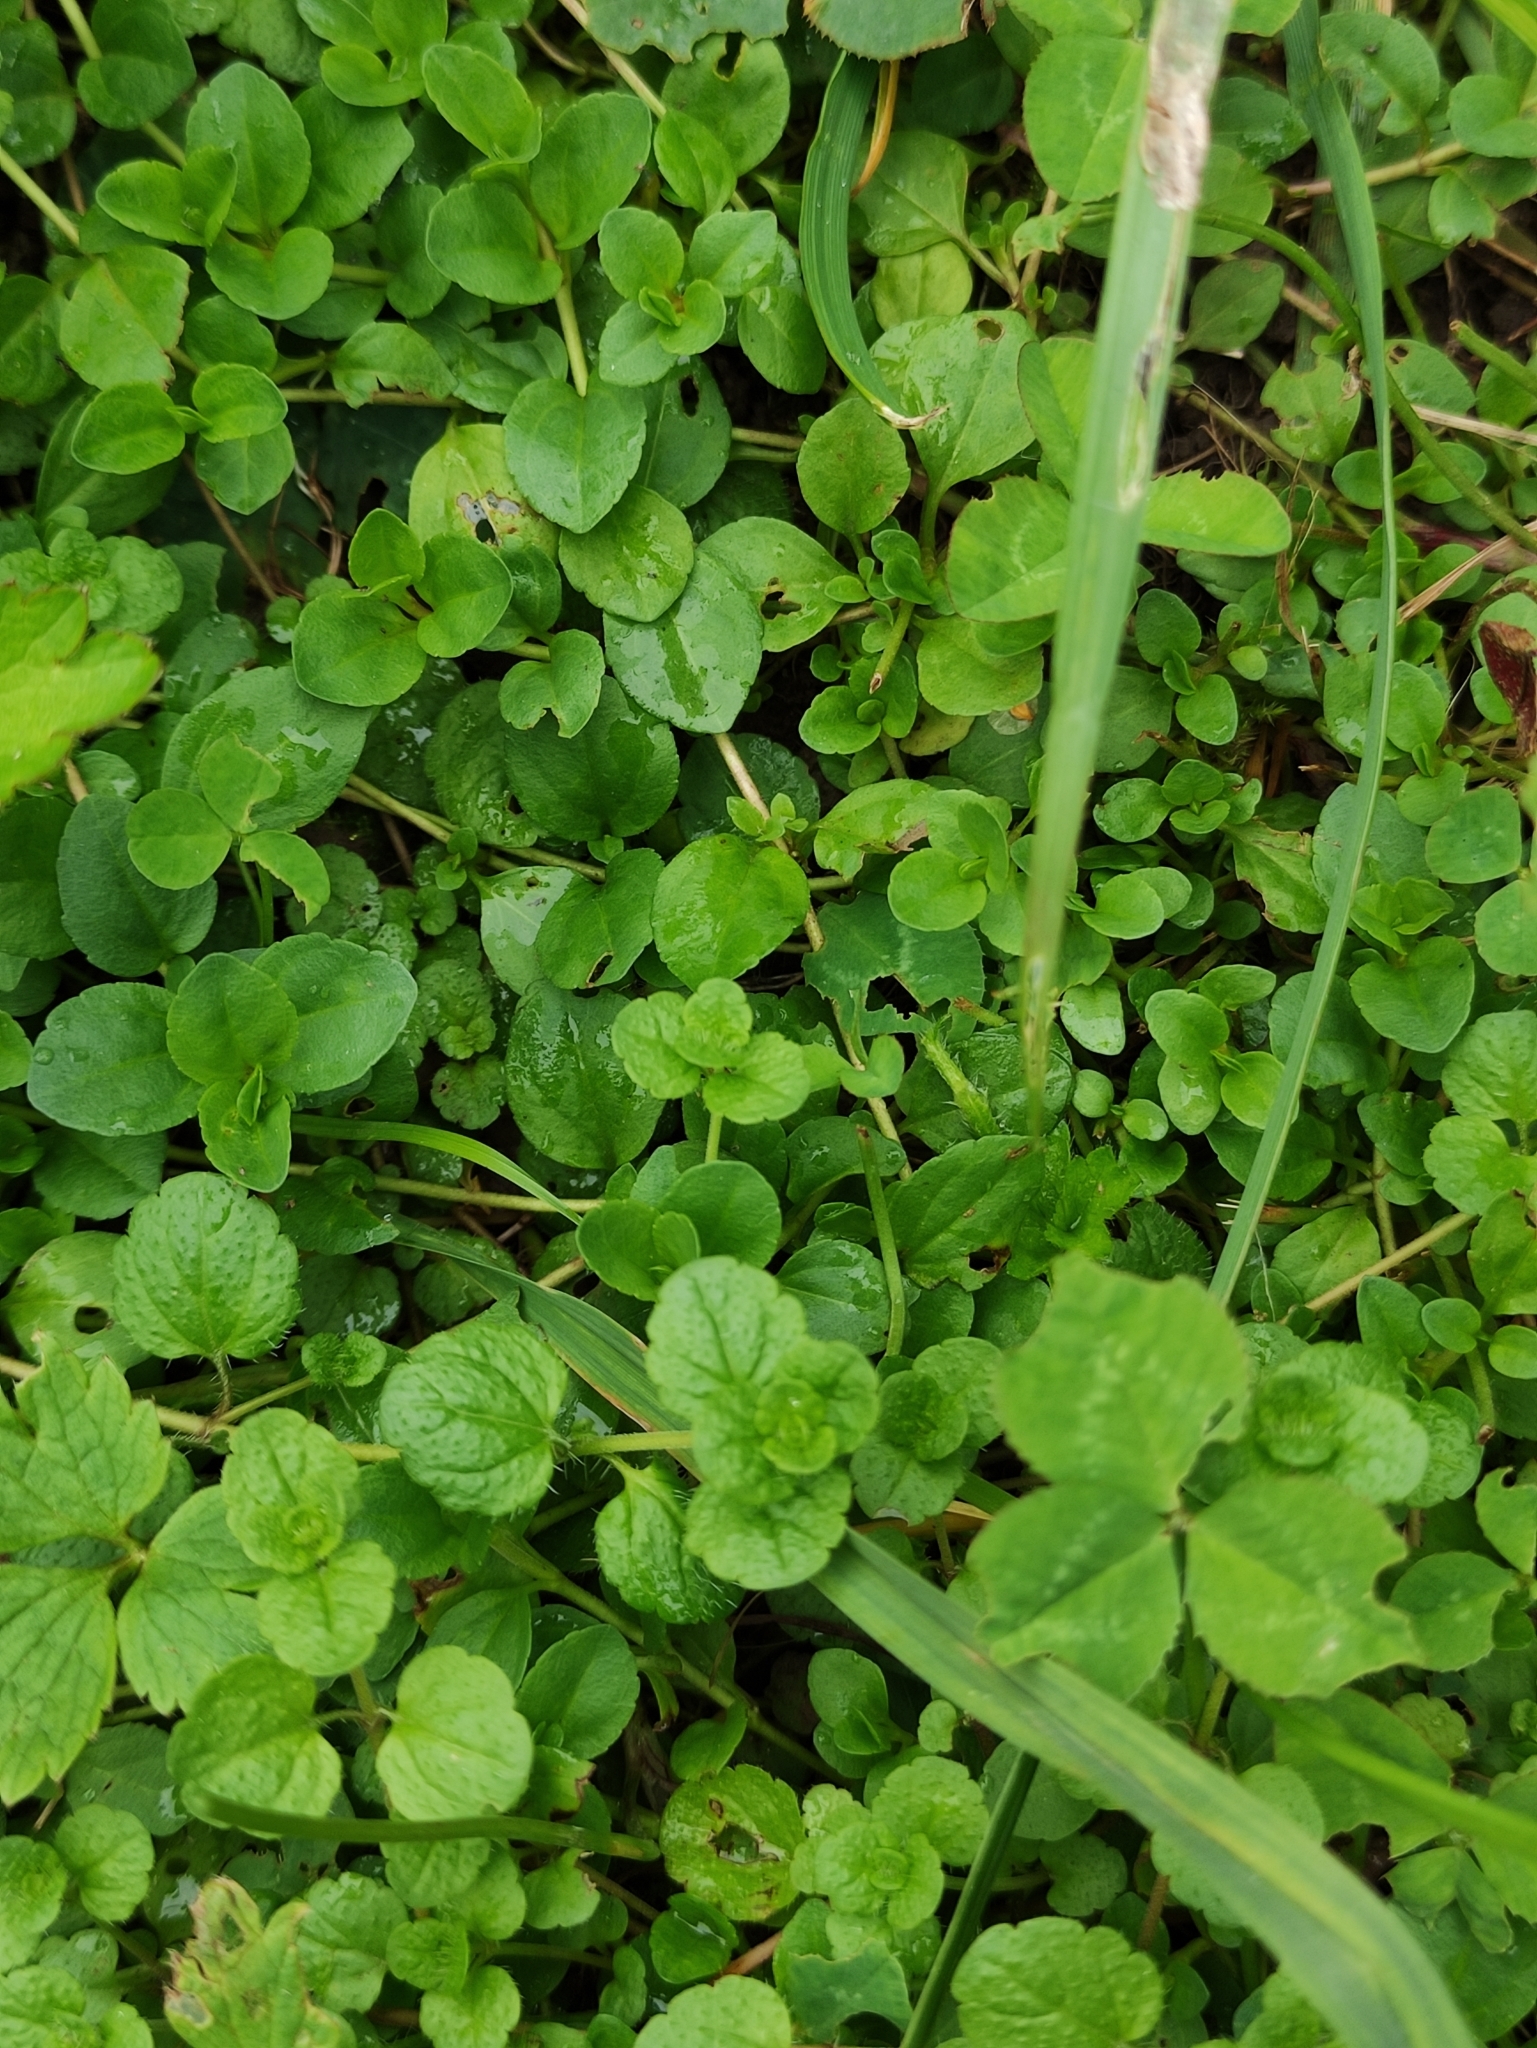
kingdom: Plantae
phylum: Tracheophyta
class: Magnoliopsida
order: Lamiales
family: Plantaginaceae
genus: Veronica
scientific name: Veronica serpyllifolia
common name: Thyme-leaved speedwell
